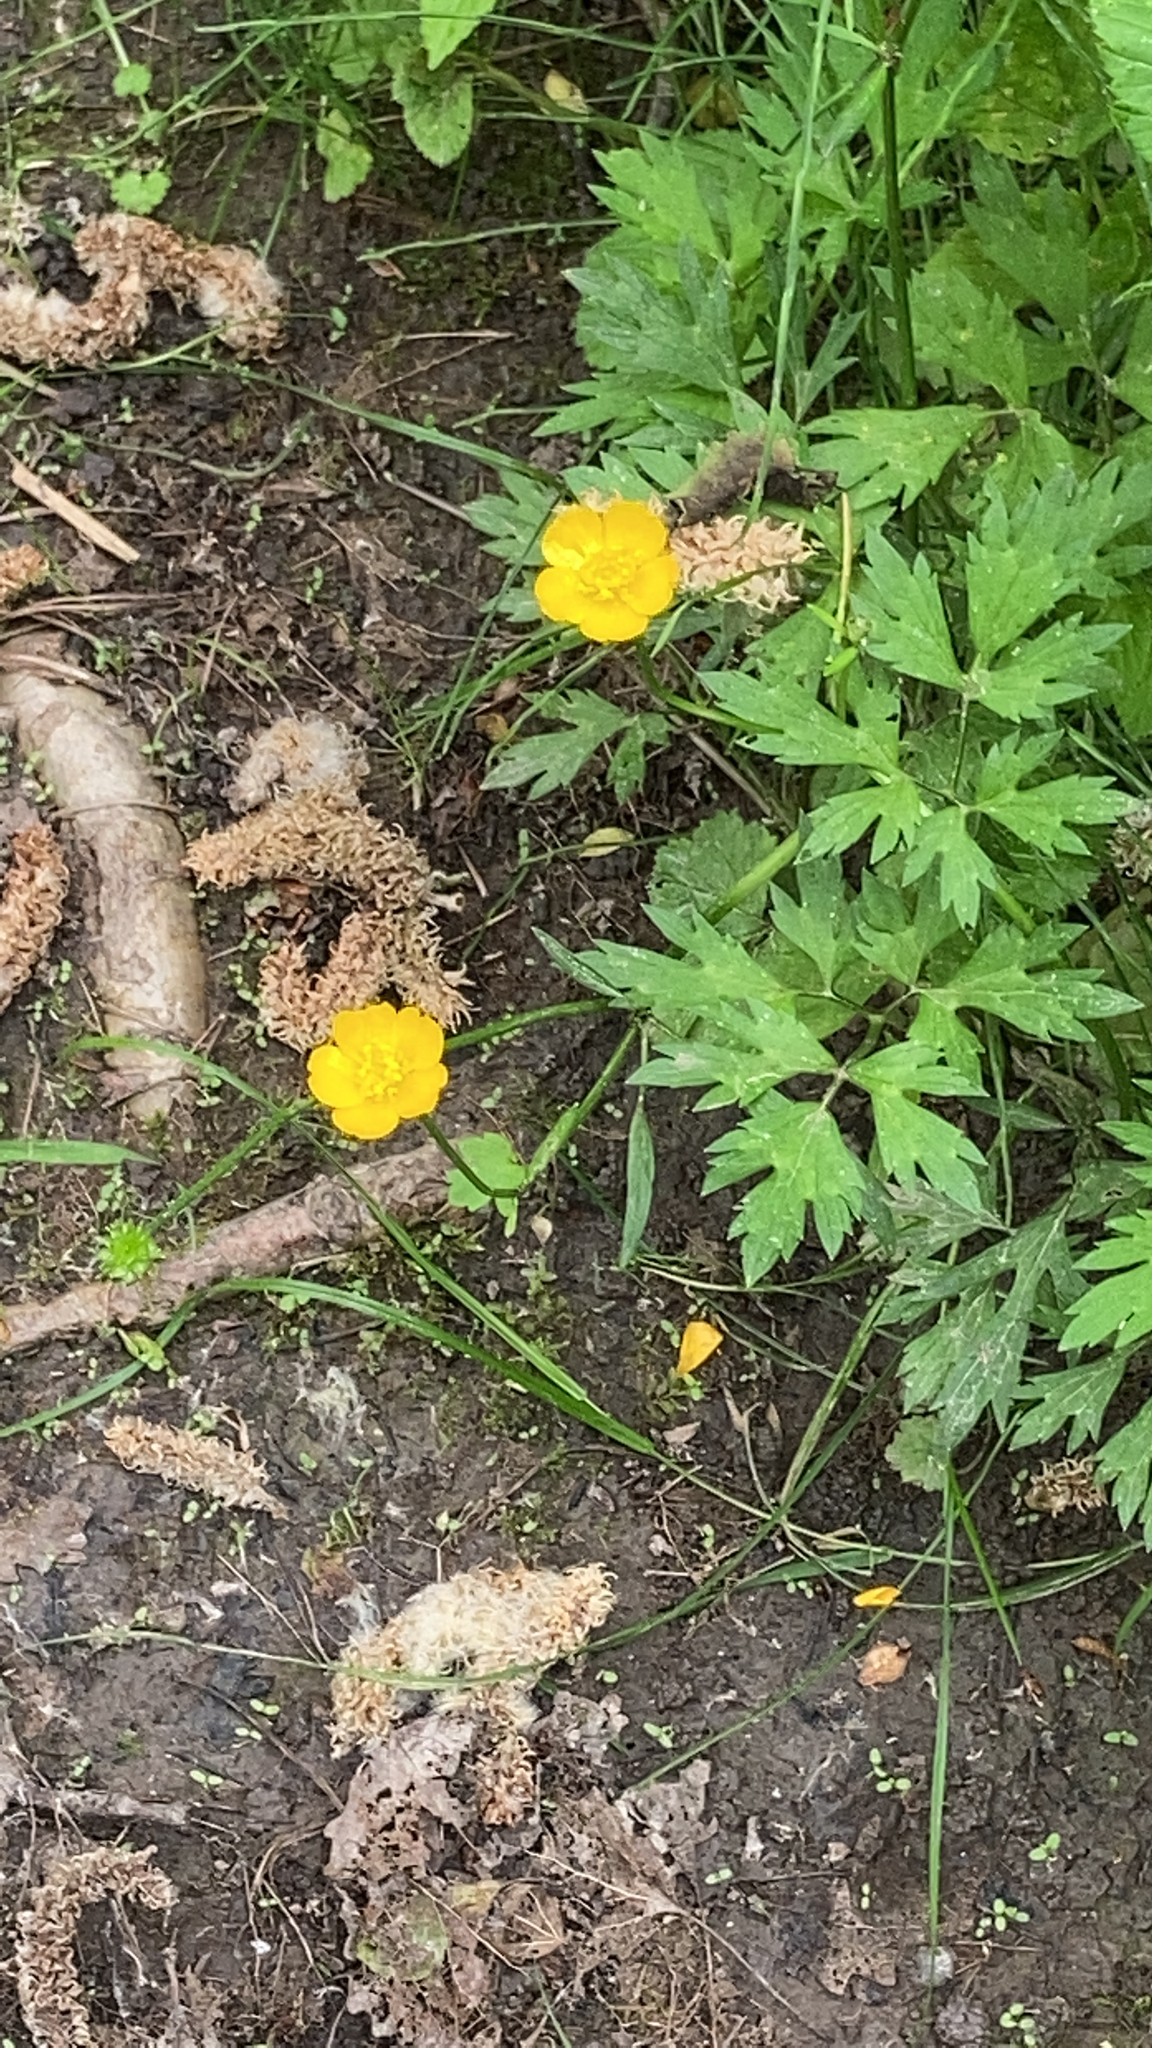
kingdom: Plantae
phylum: Tracheophyta
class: Magnoliopsida
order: Ranunculales
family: Ranunculaceae
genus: Ranunculus
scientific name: Ranunculus repens
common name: Creeping buttercup
